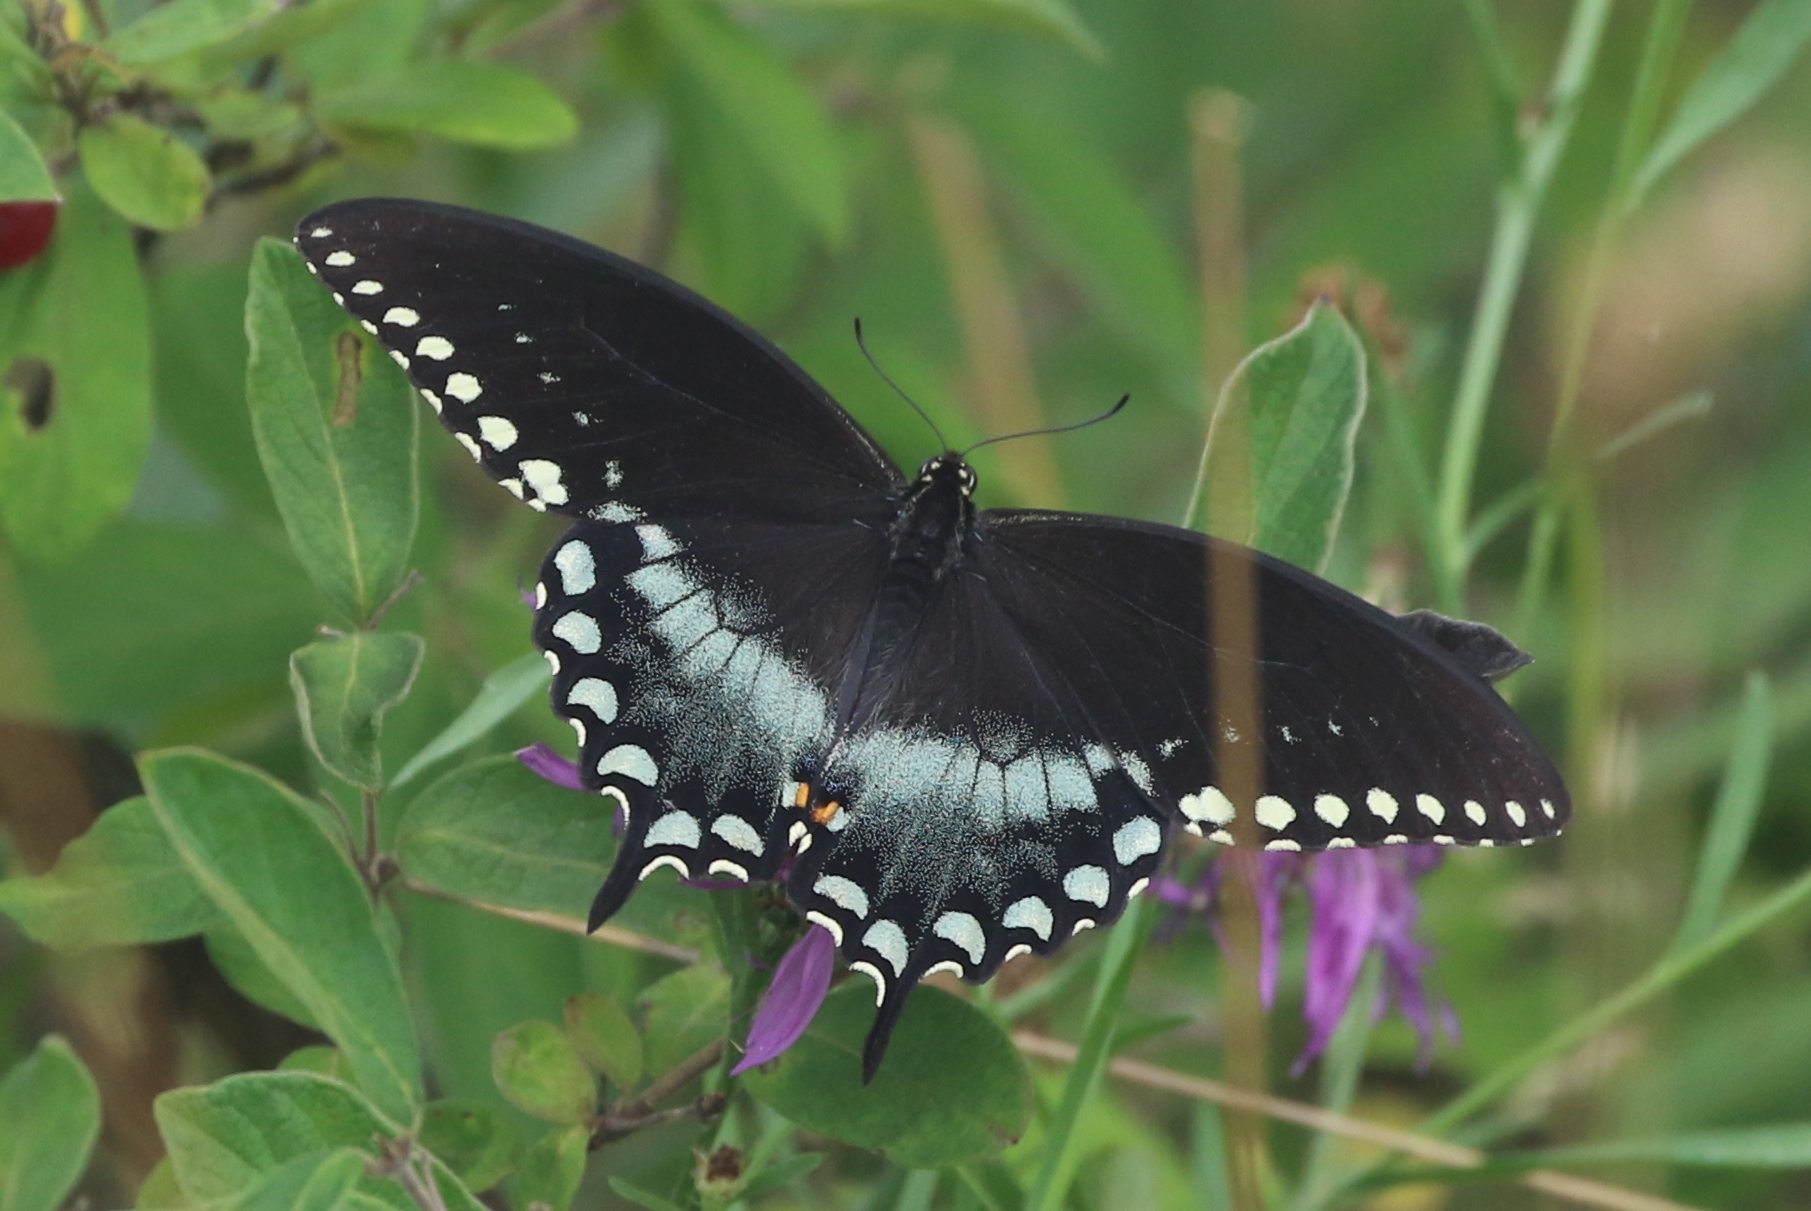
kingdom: Animalia
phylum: Arthropoda
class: Insecta
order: Lepidoptera
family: Papilionidae
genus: Papilio
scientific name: Papilio troilus
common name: Spicebush swallowtail
